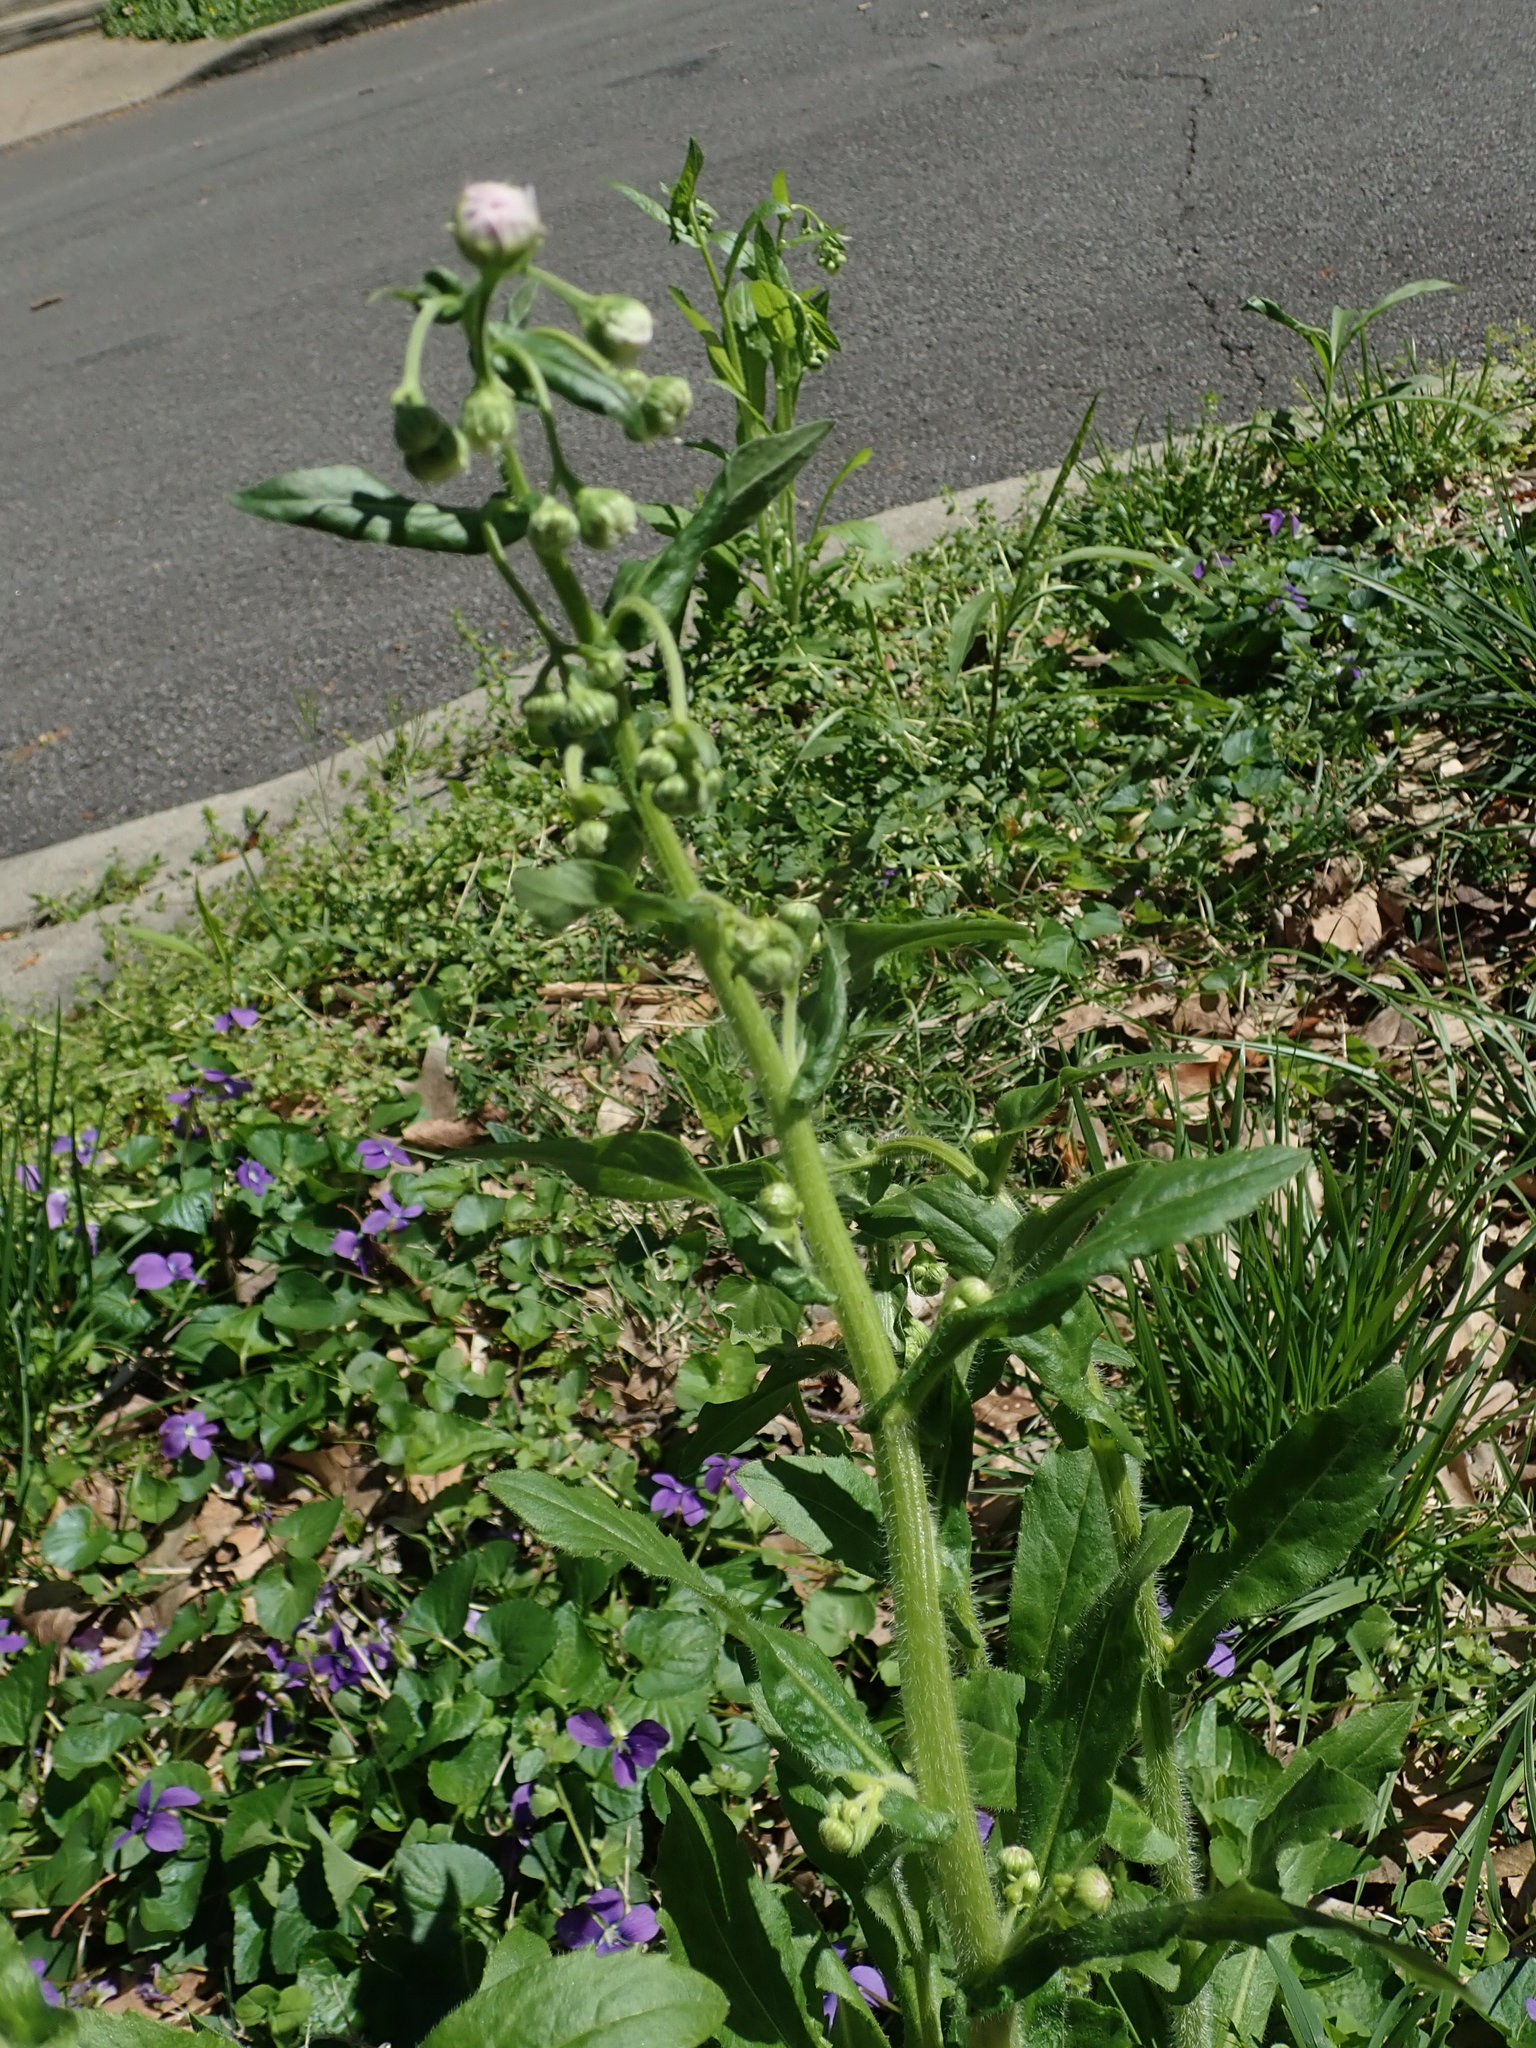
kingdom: Plantae
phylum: Tracheophyta
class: Magnoliopsida
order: Asterales
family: Asteraceae
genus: Erigeron
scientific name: Erigeron philadelphicus
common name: Robin's-plantain
